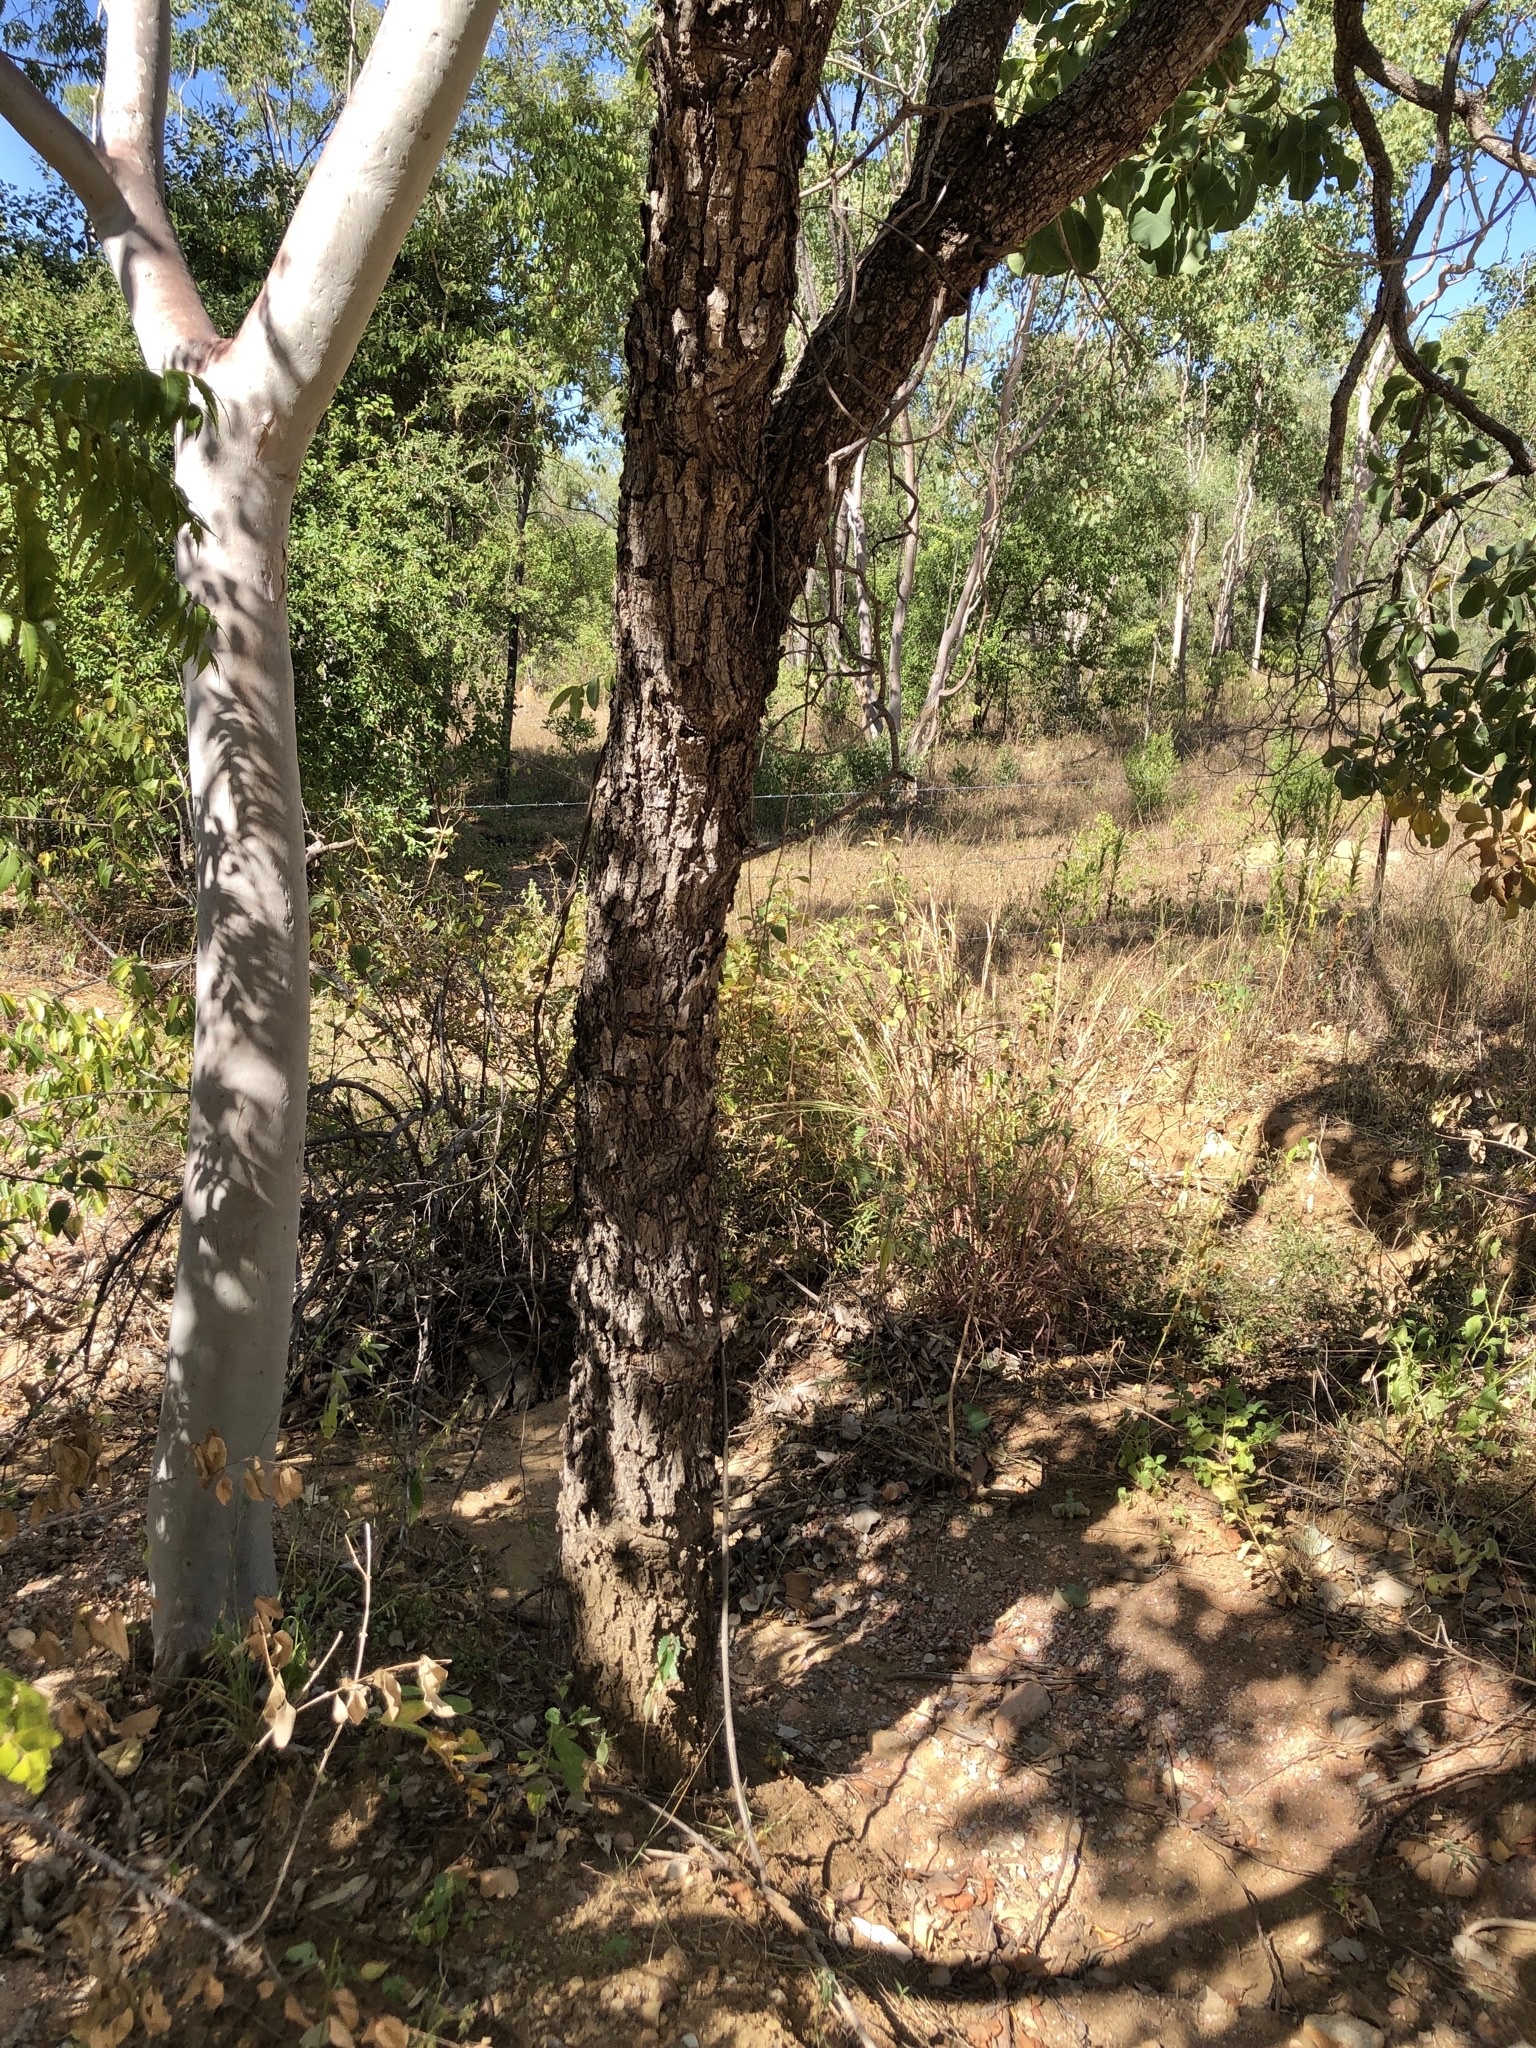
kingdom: Plantae
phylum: Tracheophyta
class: Magnoliopsida
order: Ericales
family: Lecythidaceae
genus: Planchonia
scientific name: Planchonia careya
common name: Cockatoo-apple
